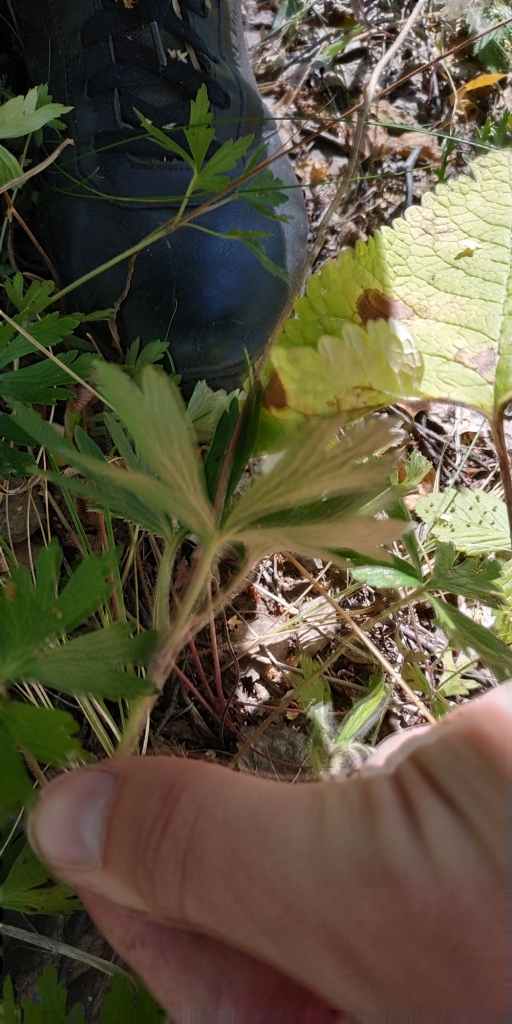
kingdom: Plantae
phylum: Tracheophyta
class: Magnoliopsida
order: Ranunculales
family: Ranunculaceae
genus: Anemone
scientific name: Anemone sylvestris
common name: Snowdrop anemone
